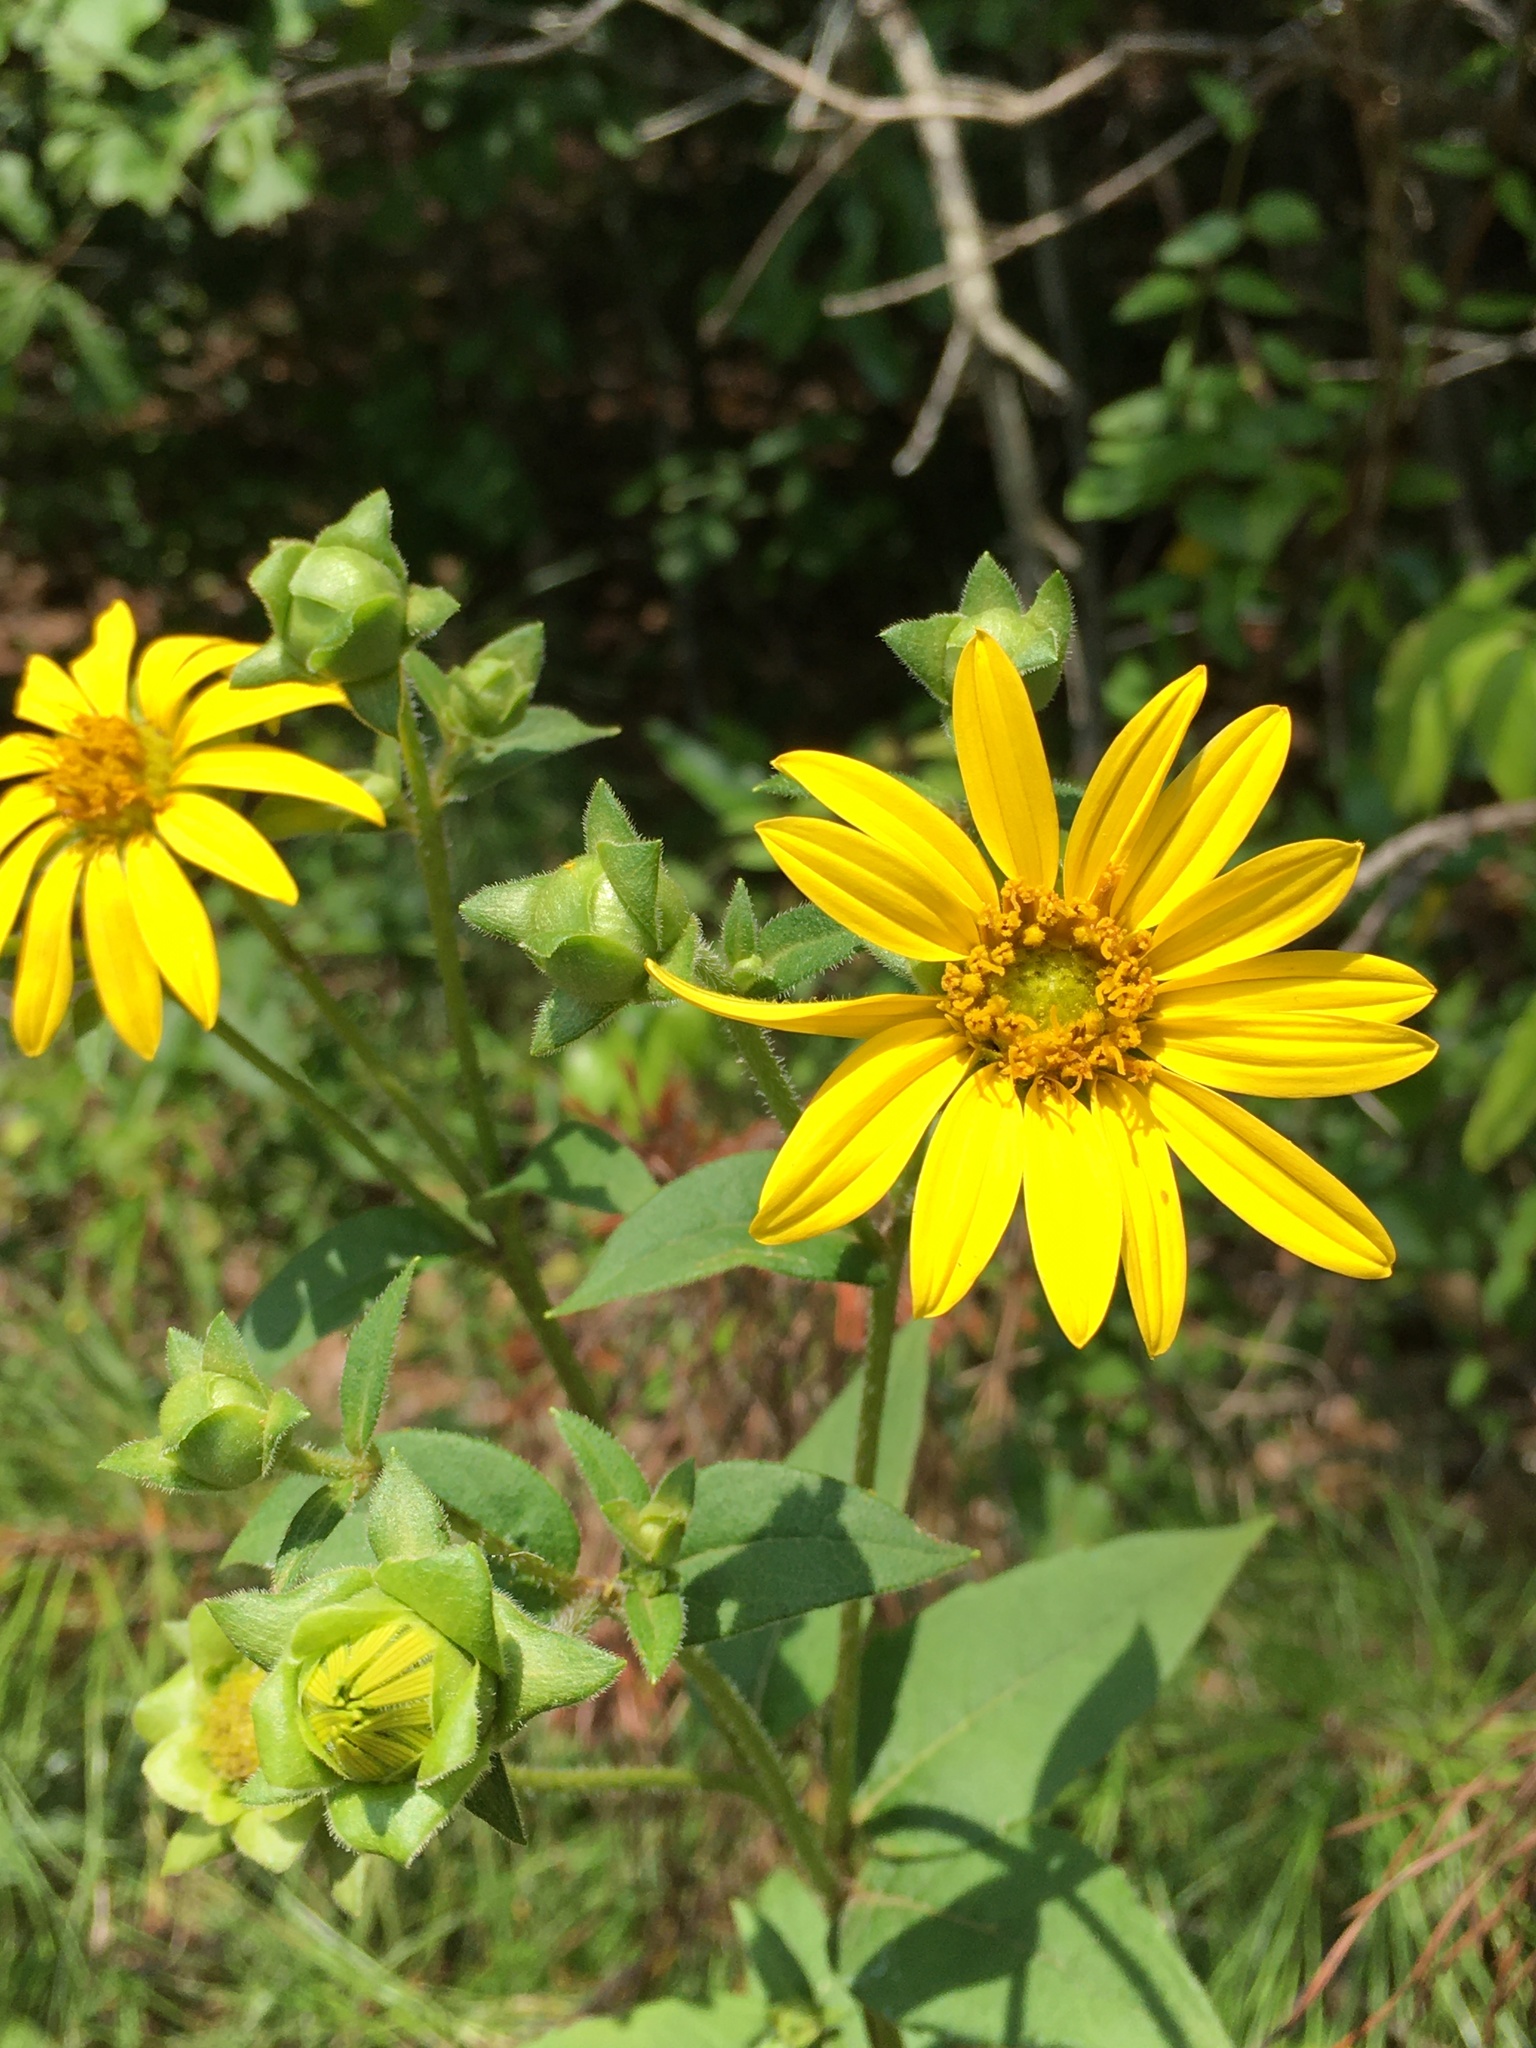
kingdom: Plantae
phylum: Tracheophyta
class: Magnoliopsida
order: Asterales
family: Asteraceae
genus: Silphium
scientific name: Silphium asteriscus
